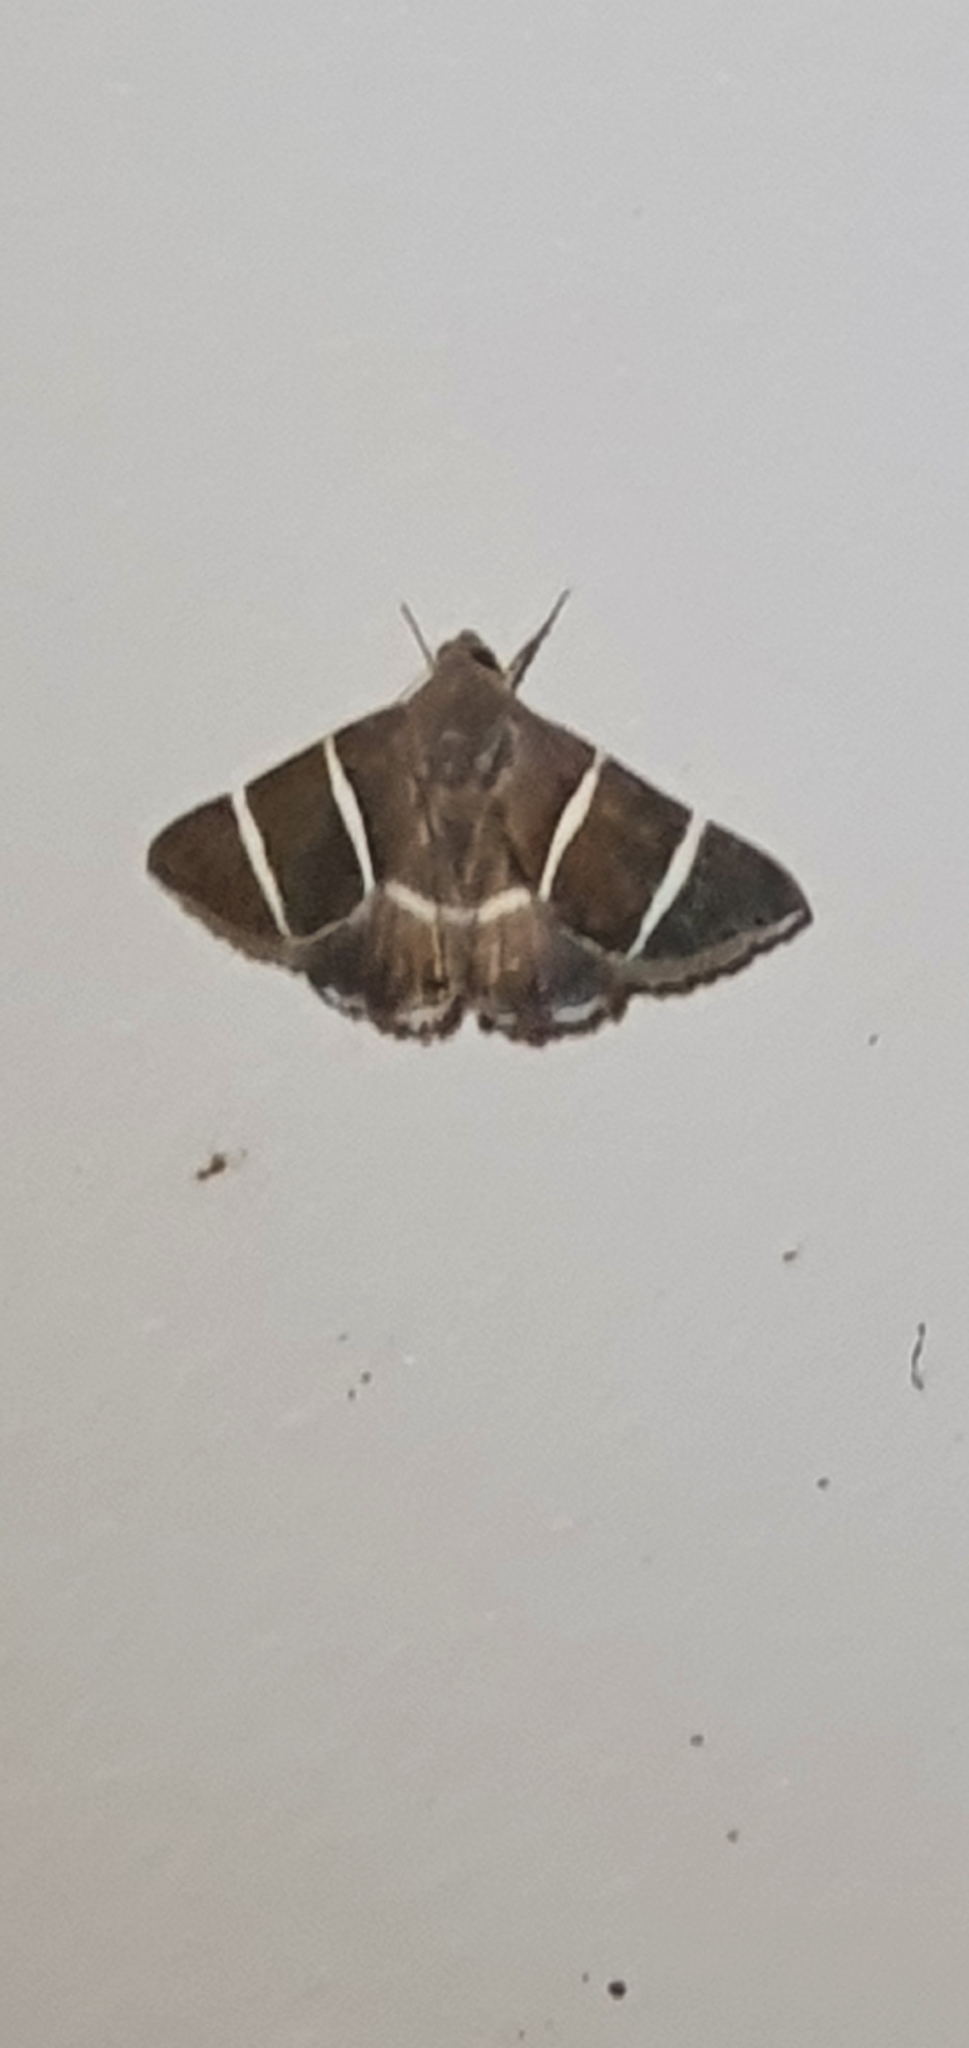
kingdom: Animalia
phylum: Arthropoda
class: Insecta
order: Lepidoptera
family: Erebidae
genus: Grammodes
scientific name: Grammodes justa
